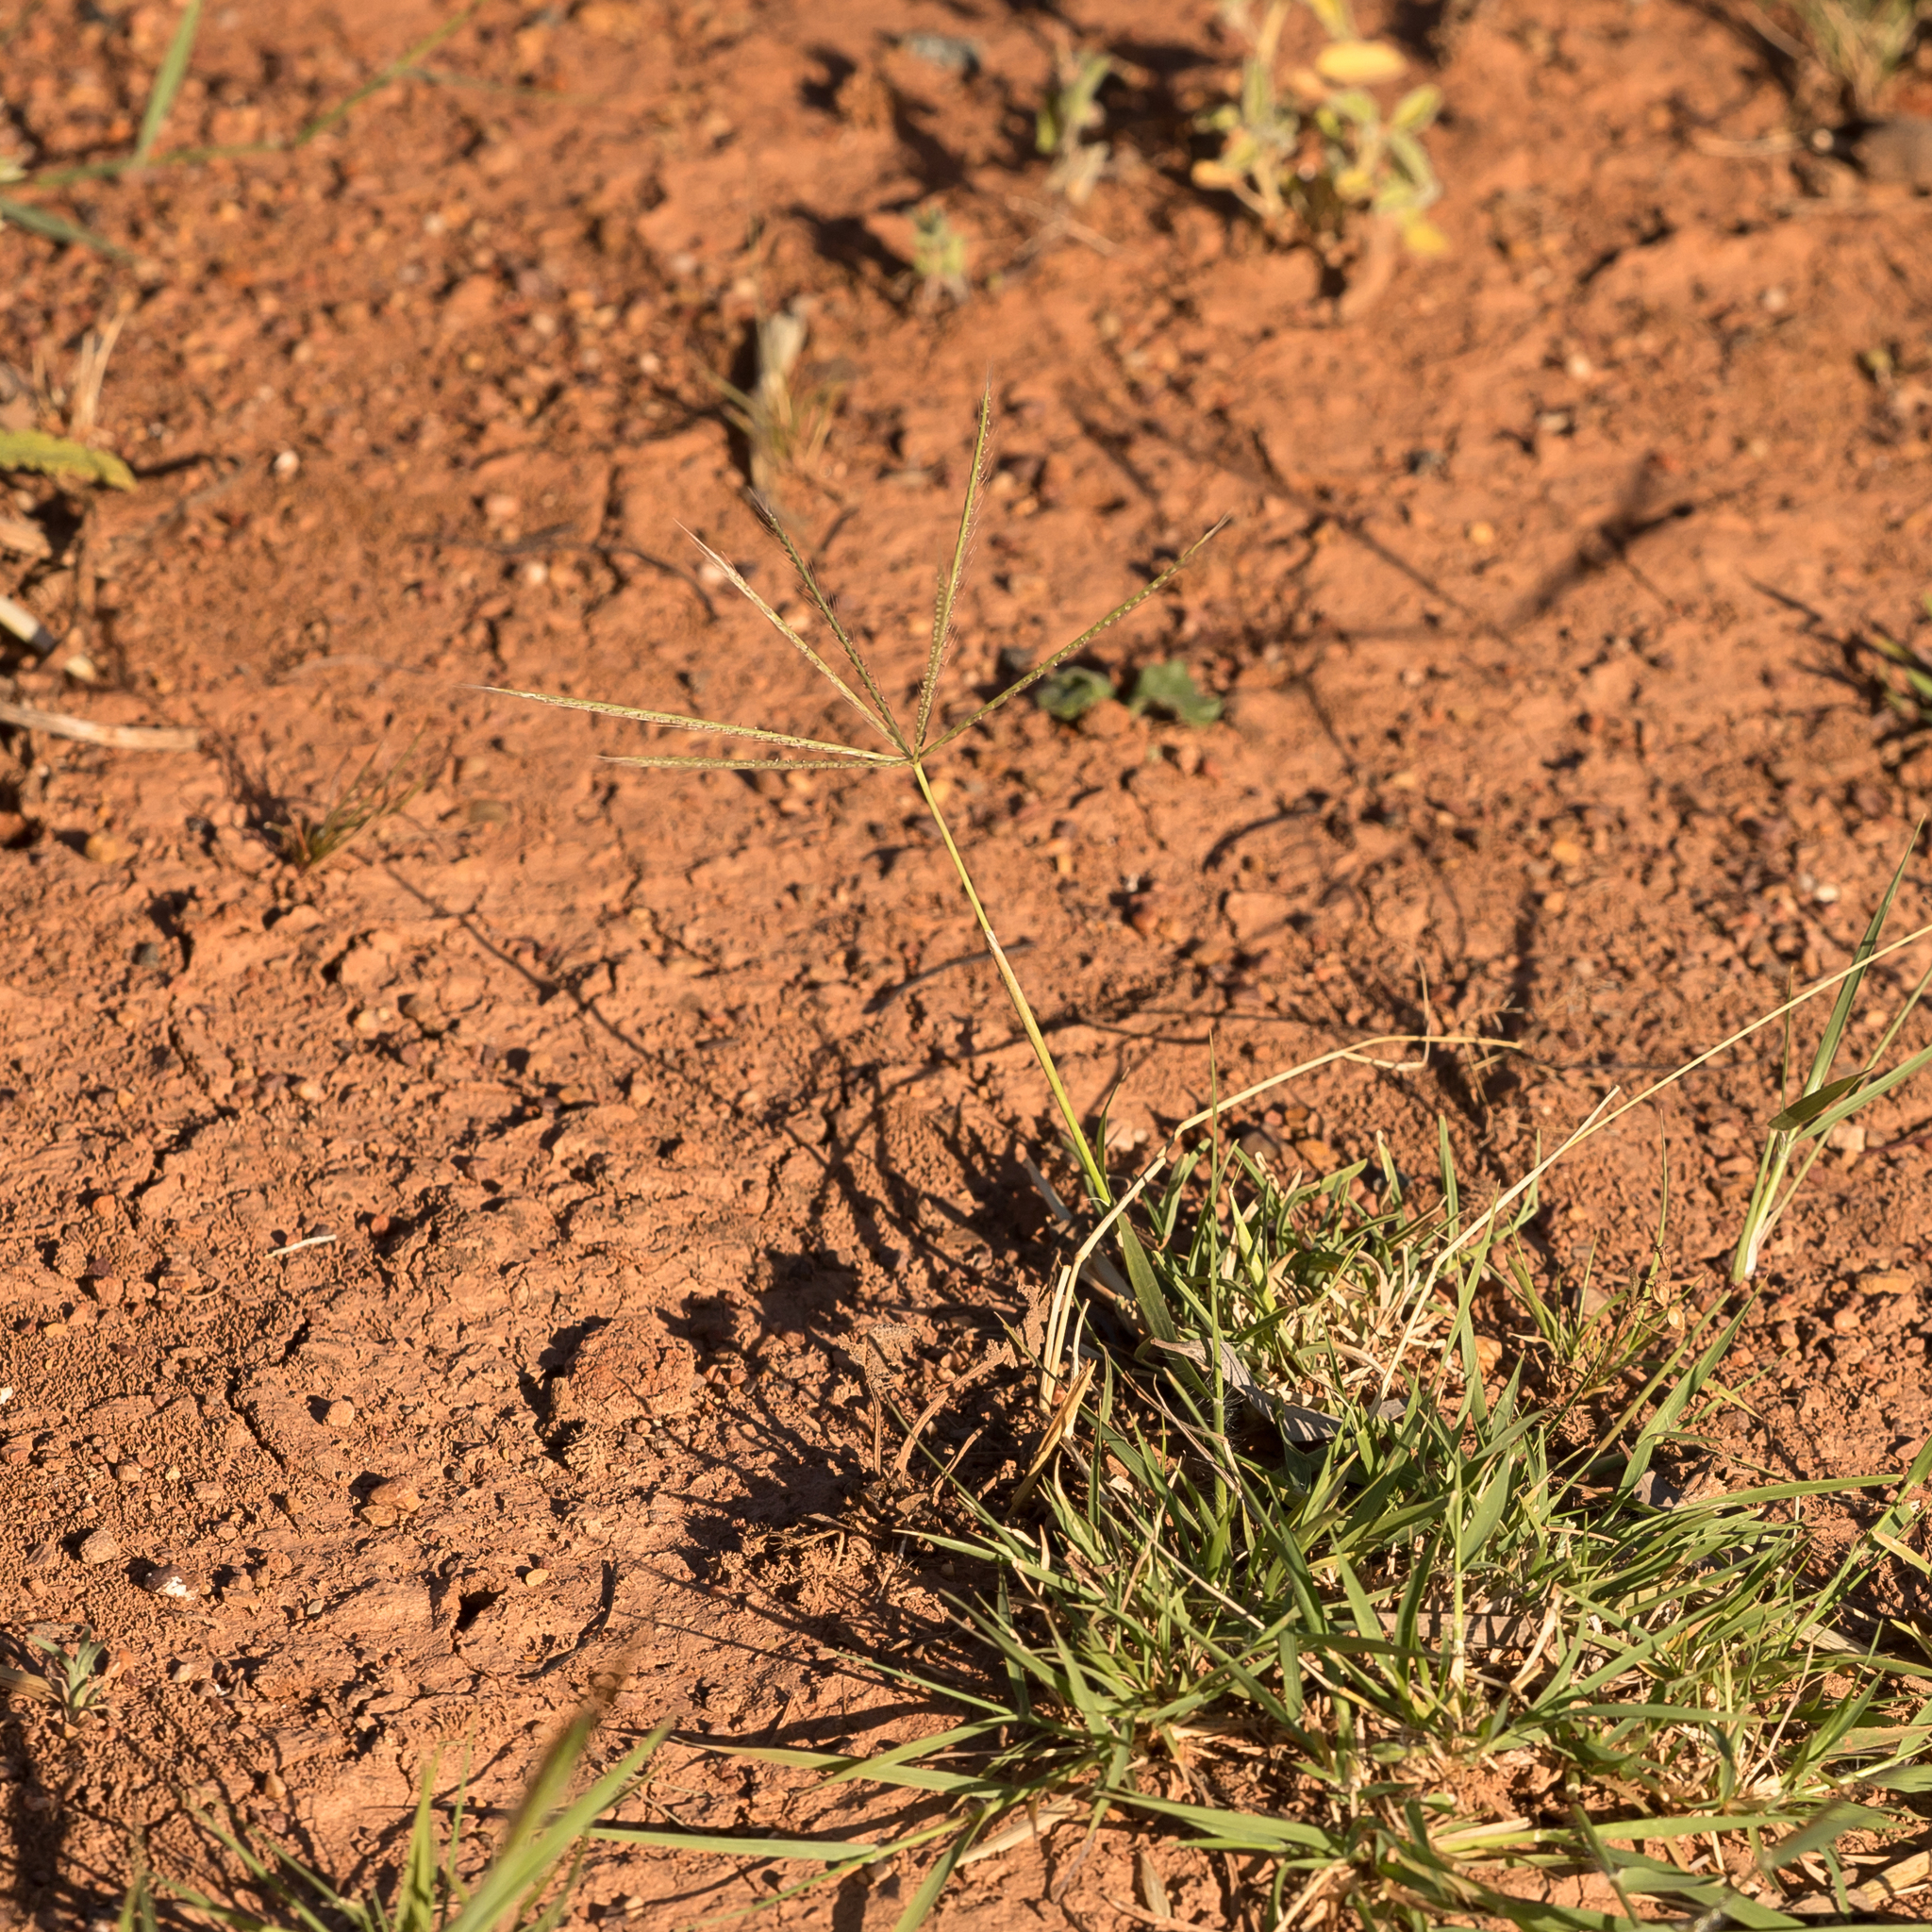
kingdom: Plantae
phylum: Tracheophyta
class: Liliopsida
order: Poales
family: Poaceae
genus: Chloris
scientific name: Chloris truncata
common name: Windmill-grass
